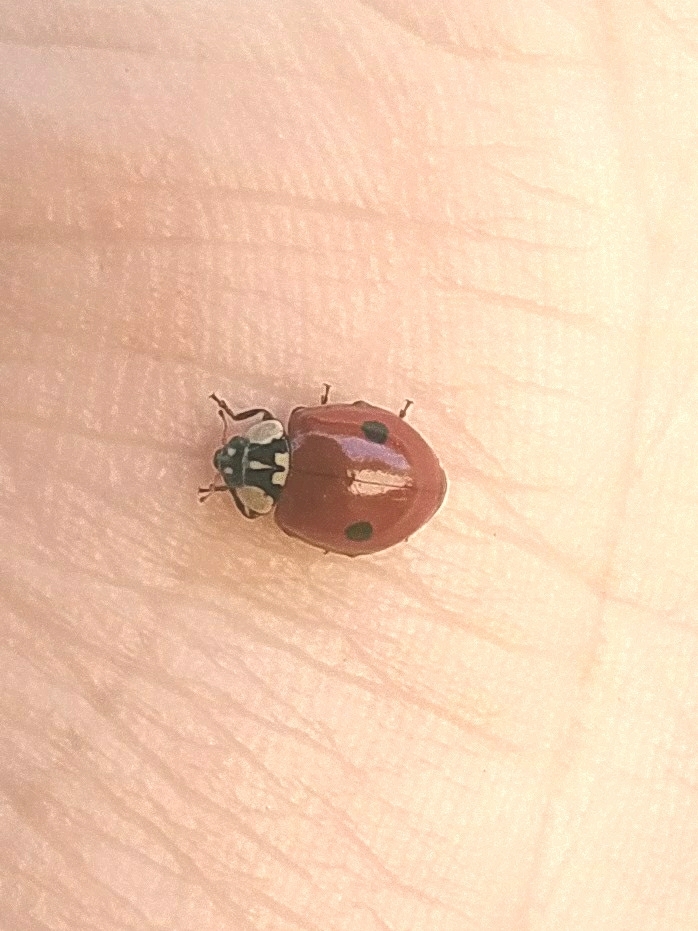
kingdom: Animalia
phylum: Arthropoda
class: Insecta
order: Coleoptera
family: Coccinellidae
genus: Adalia
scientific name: Adalia bipunctata
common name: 2-spot ladybird
